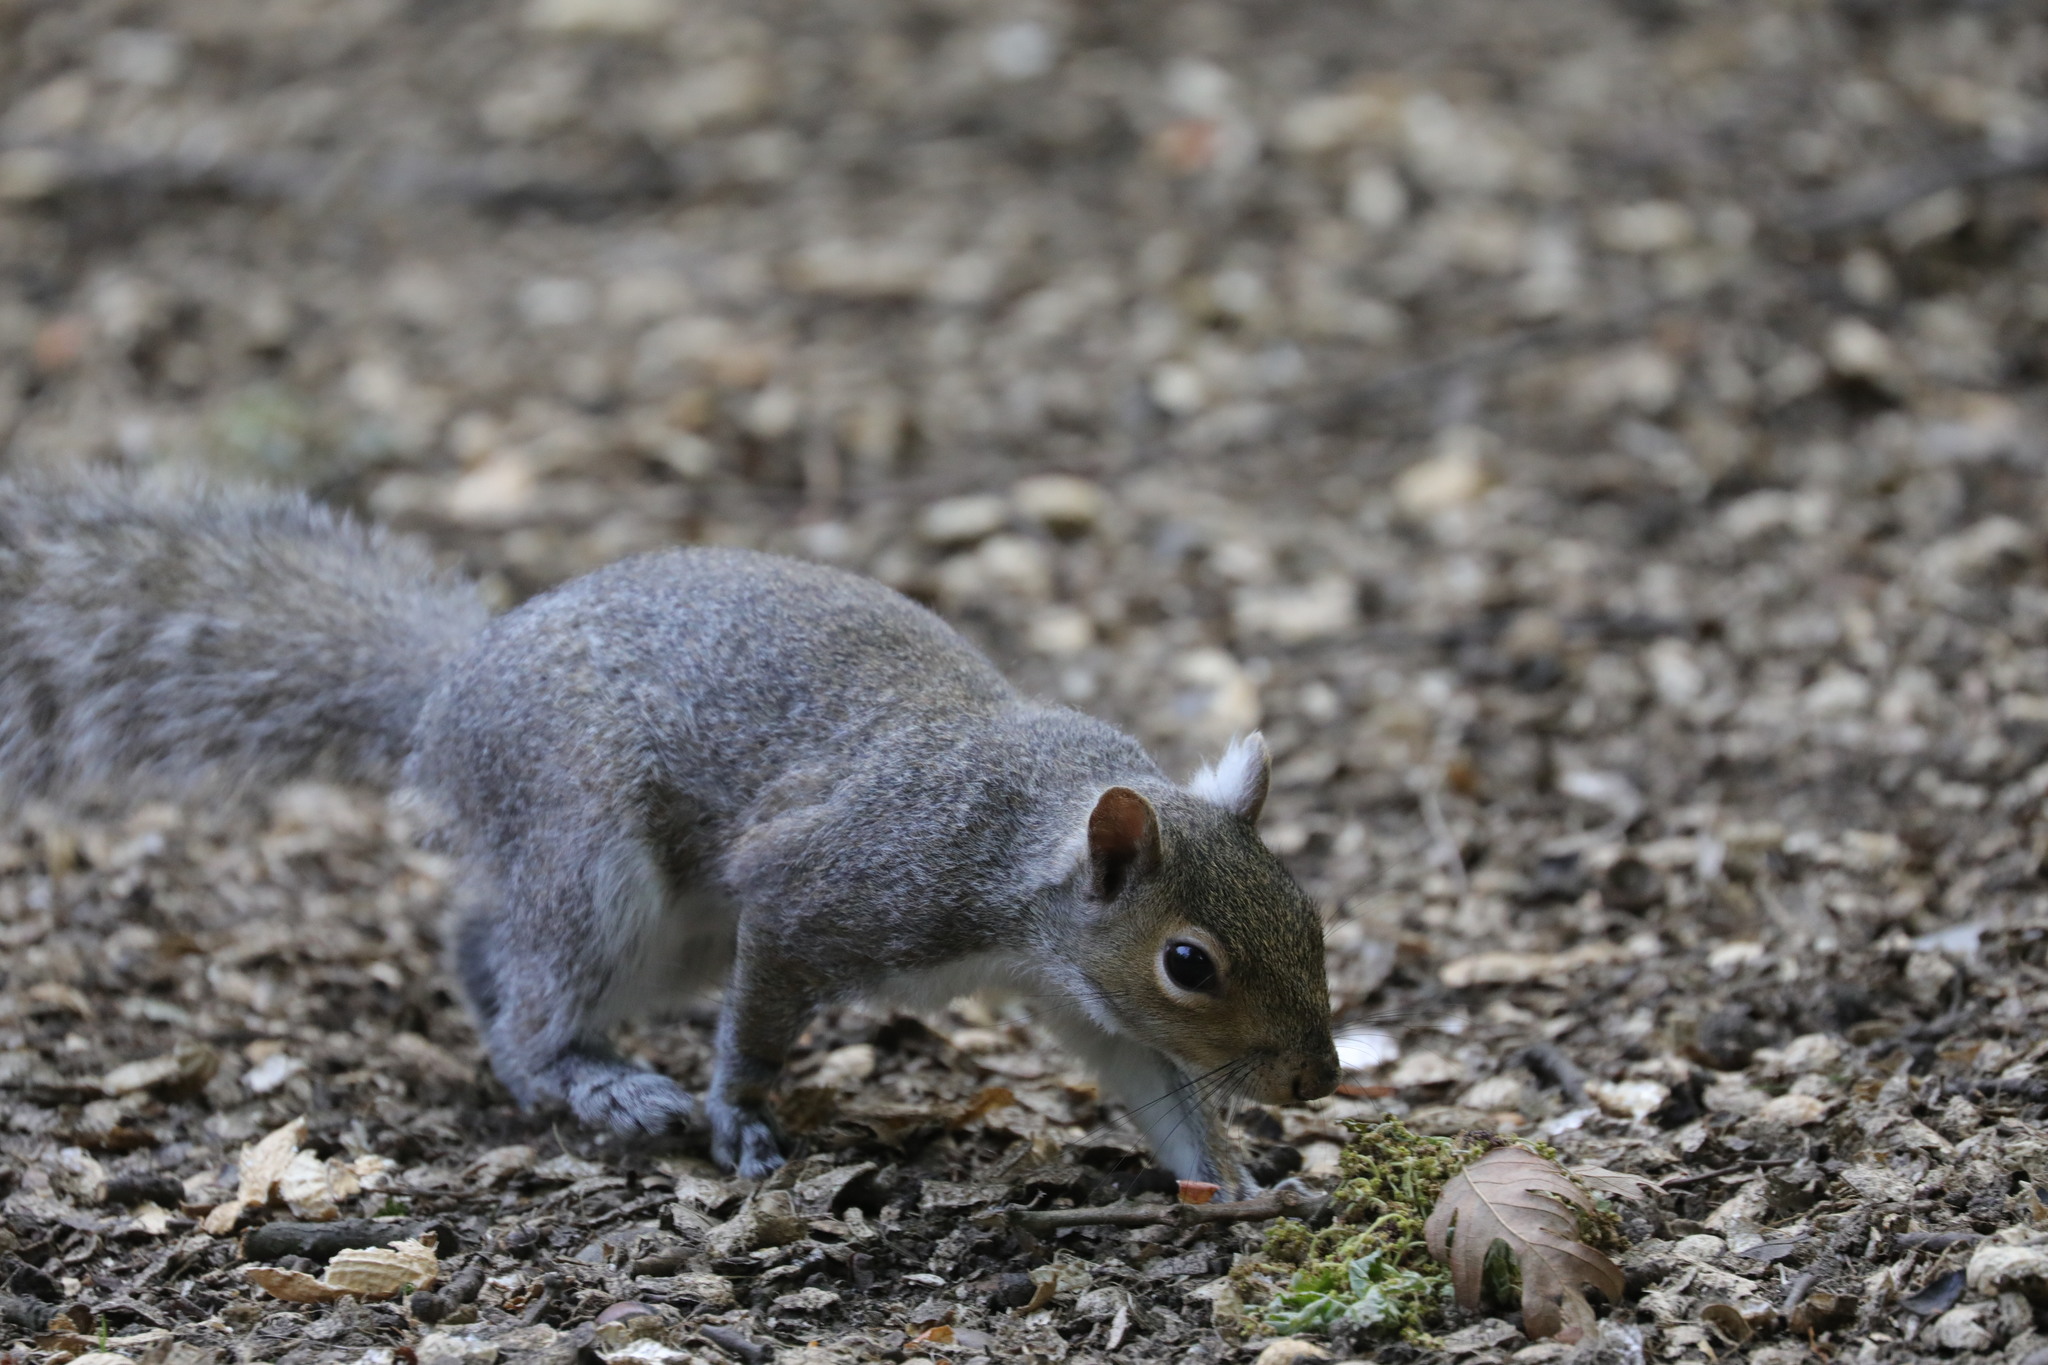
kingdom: Animalia
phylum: Chordata
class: Mammalia
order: Rodentia
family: Sciuridae
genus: Sciurus
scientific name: Sciurus carolinensis
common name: Eastern gray squirrel
